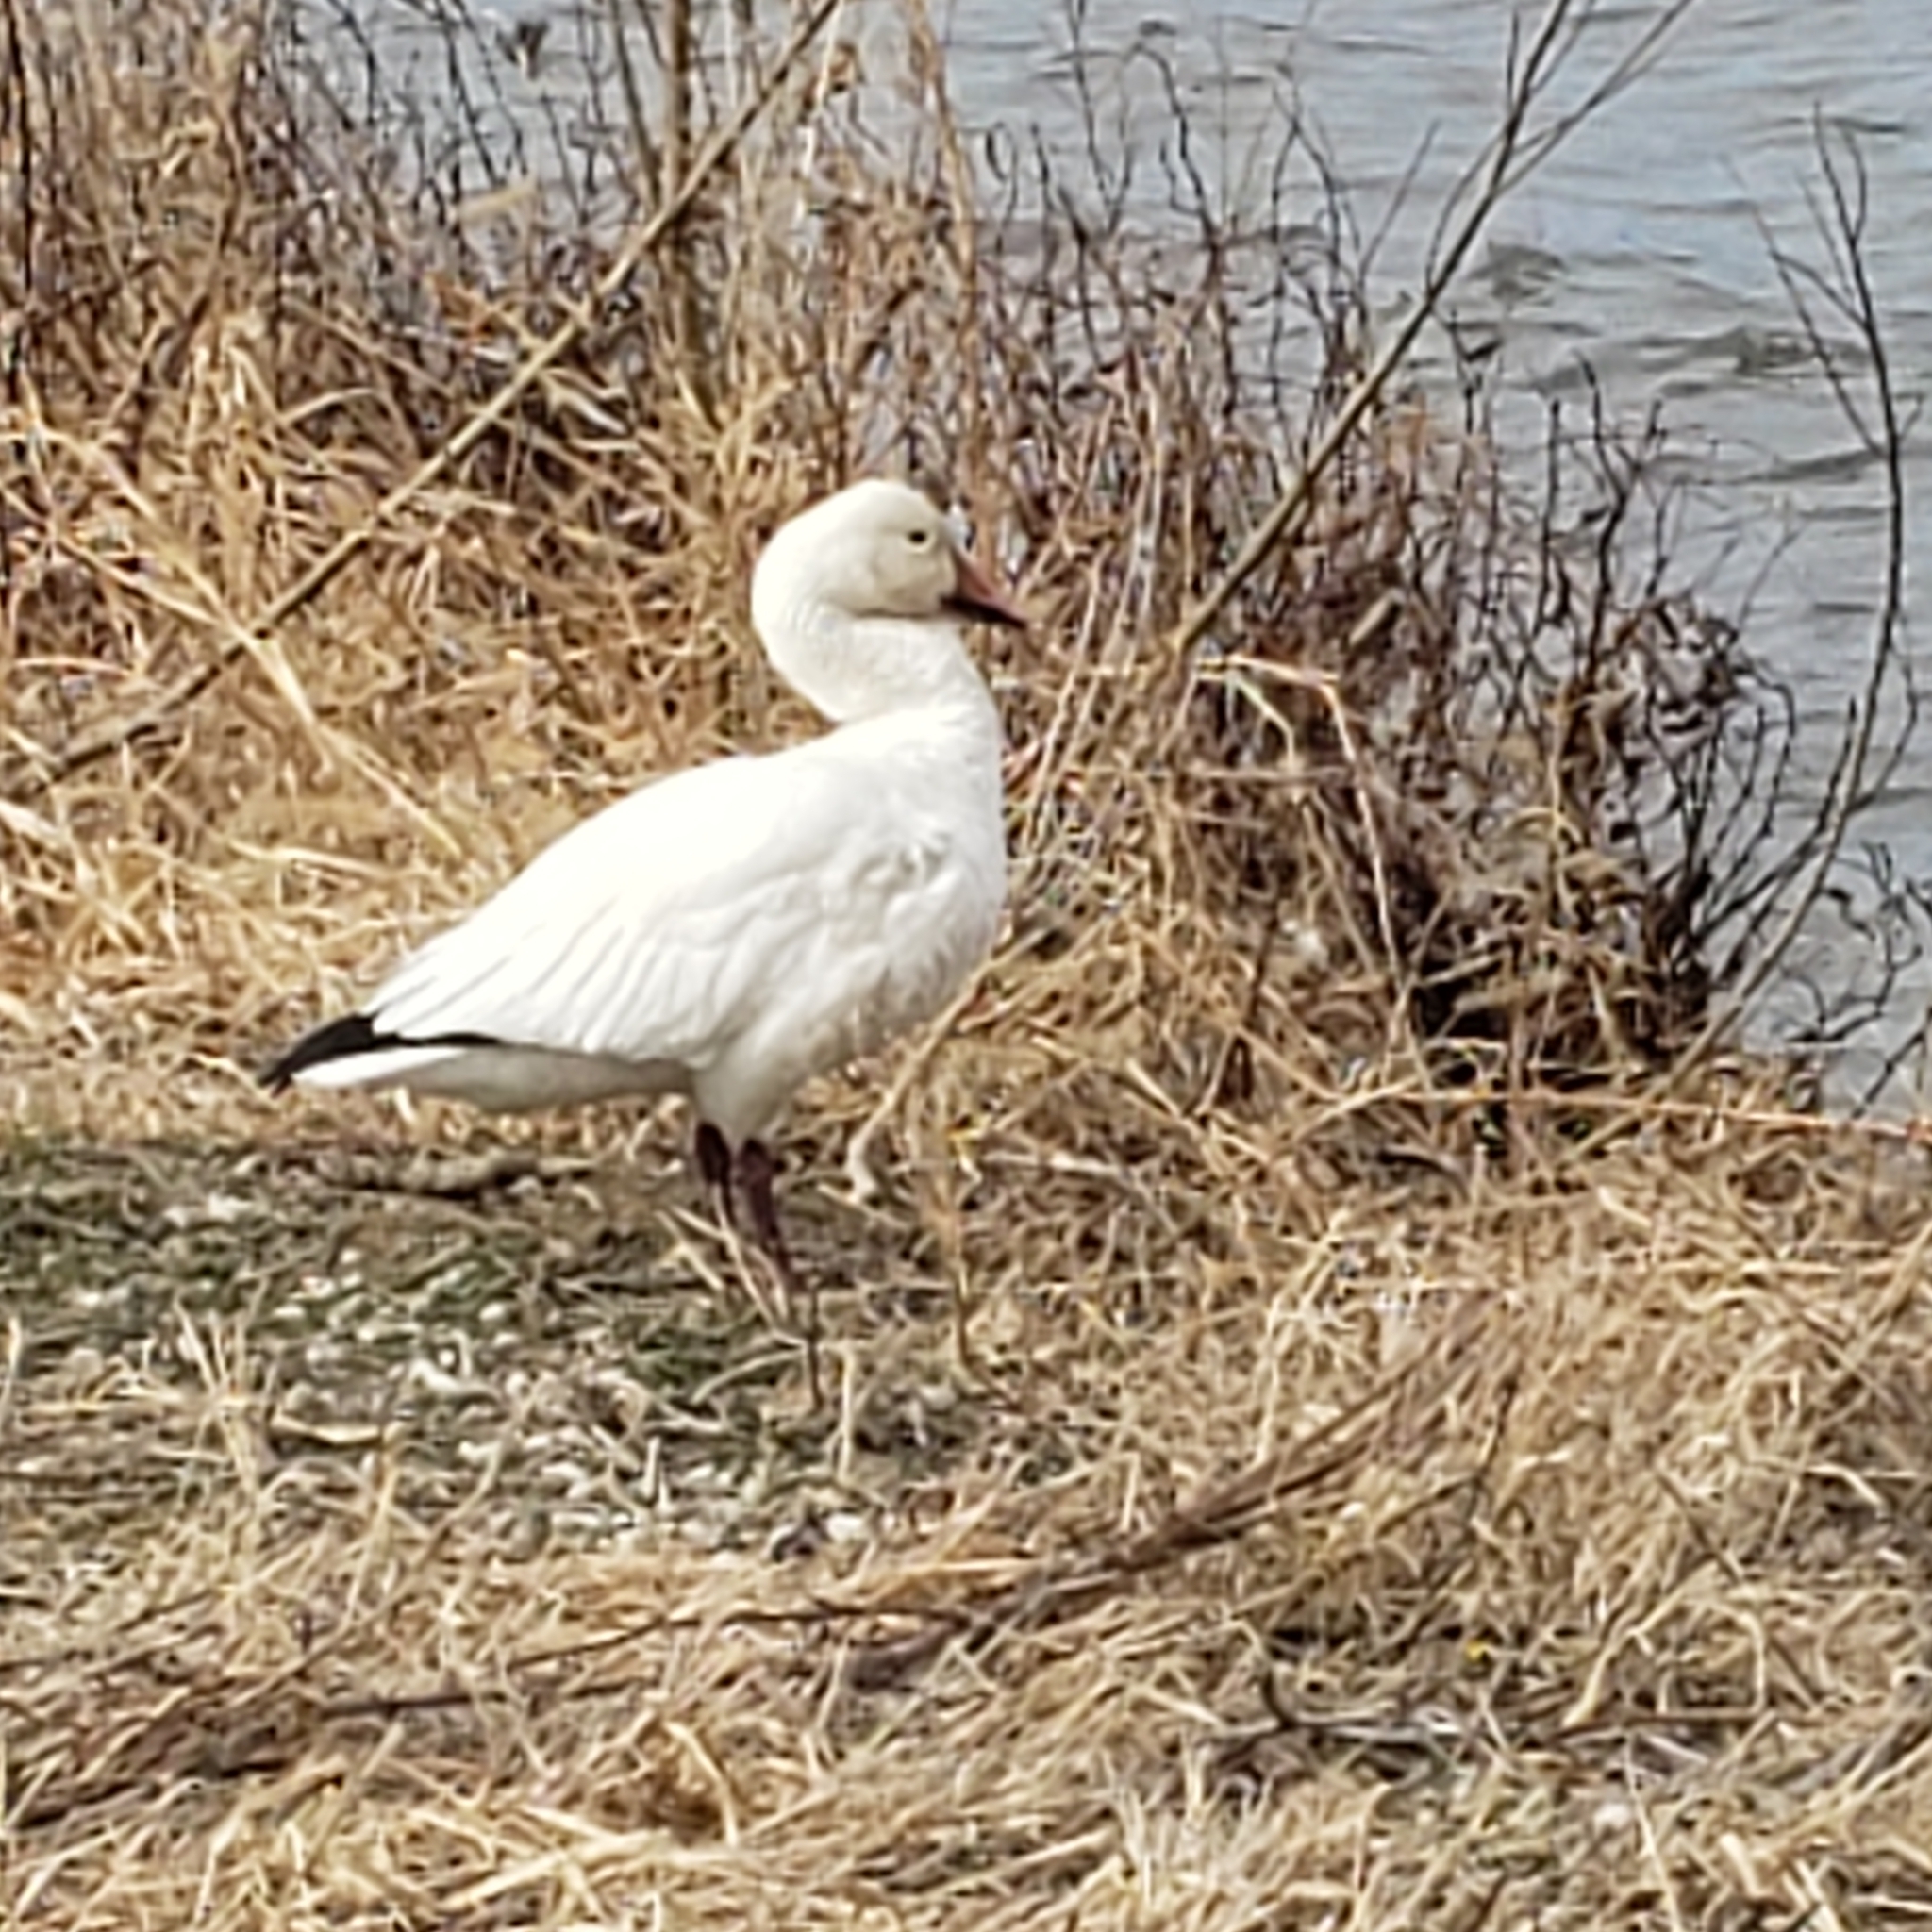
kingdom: Animalia
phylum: Chordata
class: Aves
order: Anseriformes
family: Anatidae
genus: Anser
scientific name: Anser caerulescens
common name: Snow goose
